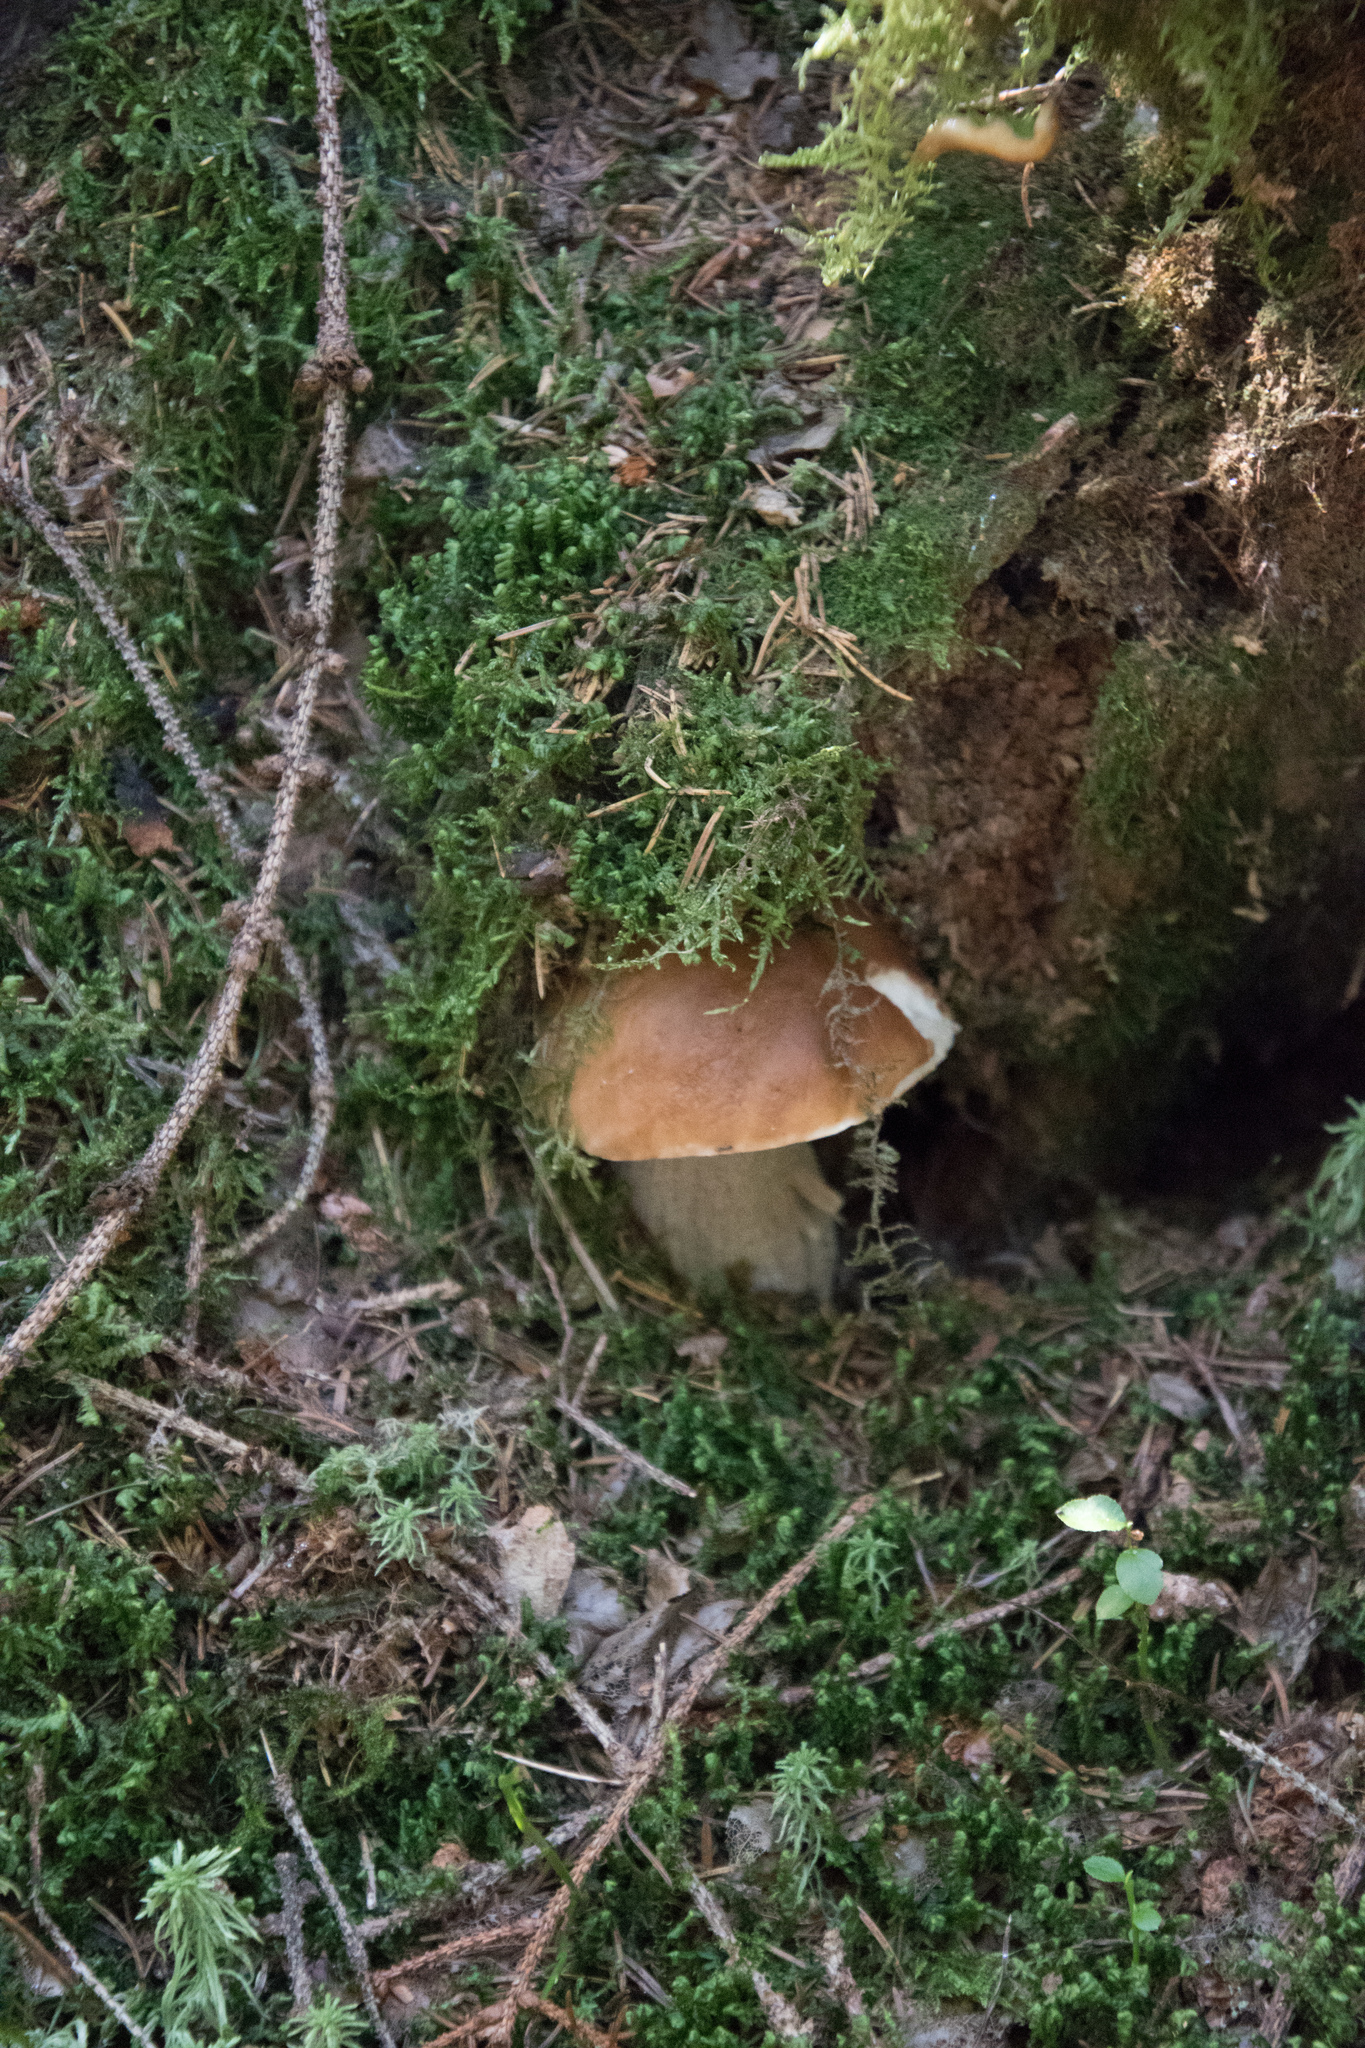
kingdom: Fungi
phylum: Basidiomycota
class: Agaricomycetes
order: Boletales
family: Boletaceae
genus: Boletus
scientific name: Boletus edulis
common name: Cep
